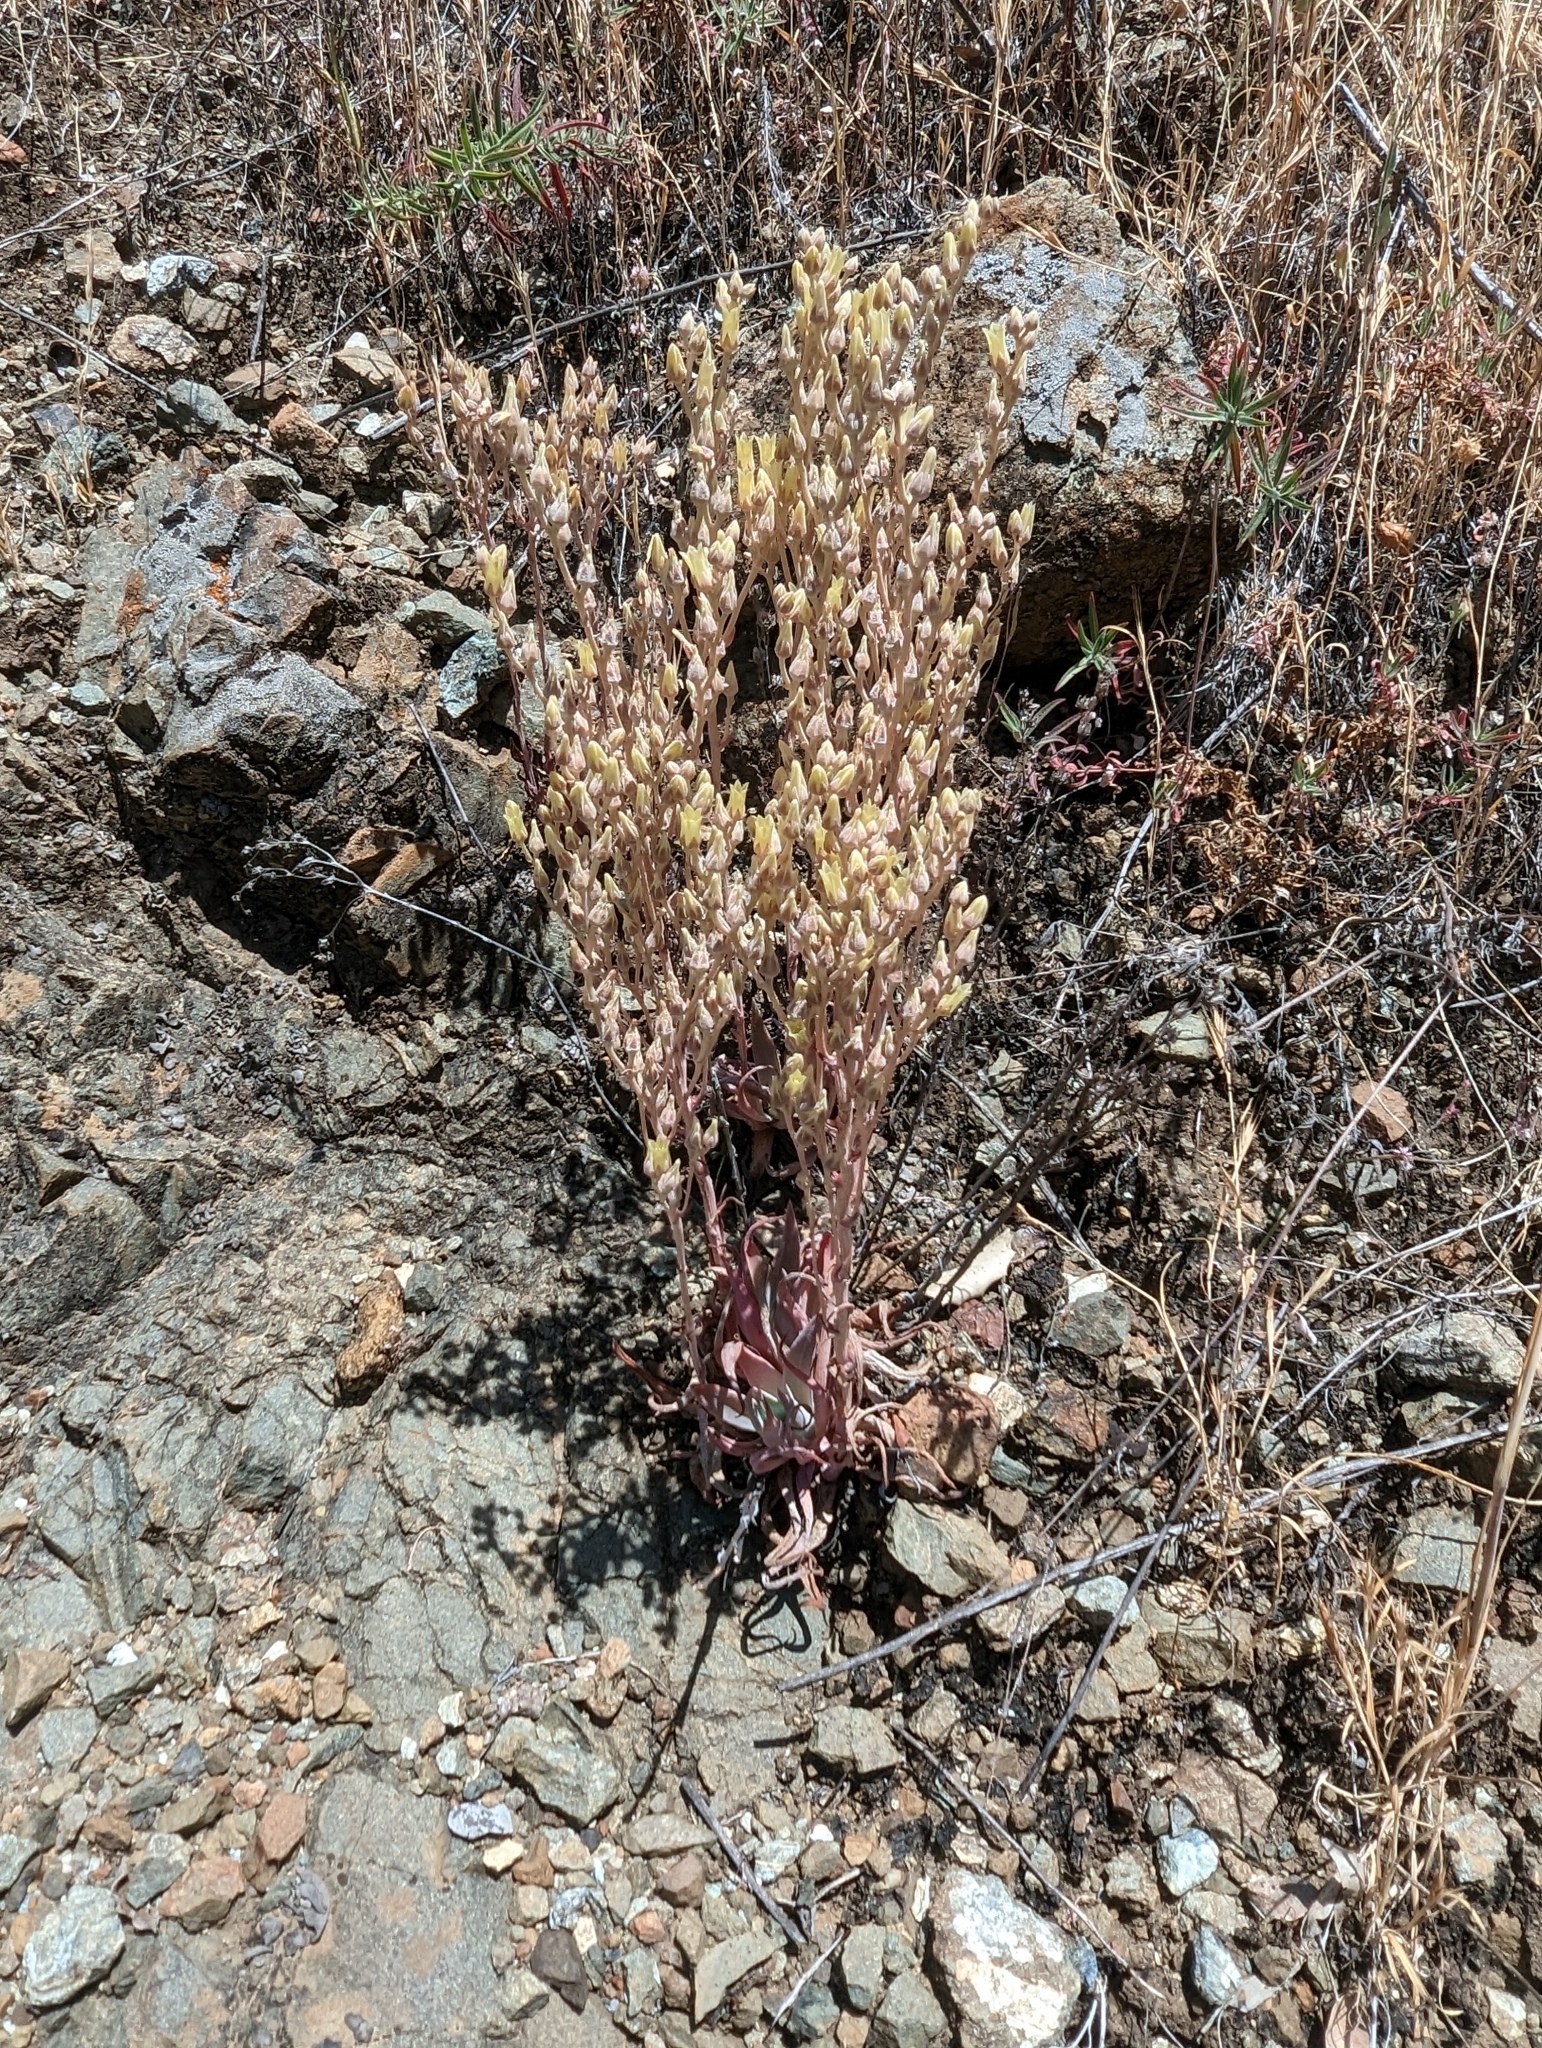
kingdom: Plantae
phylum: Tracheophyta
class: Magnoliopsida
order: Saxifragales
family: Crassulaceae
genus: Dudleya
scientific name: Dudleya abramsii
